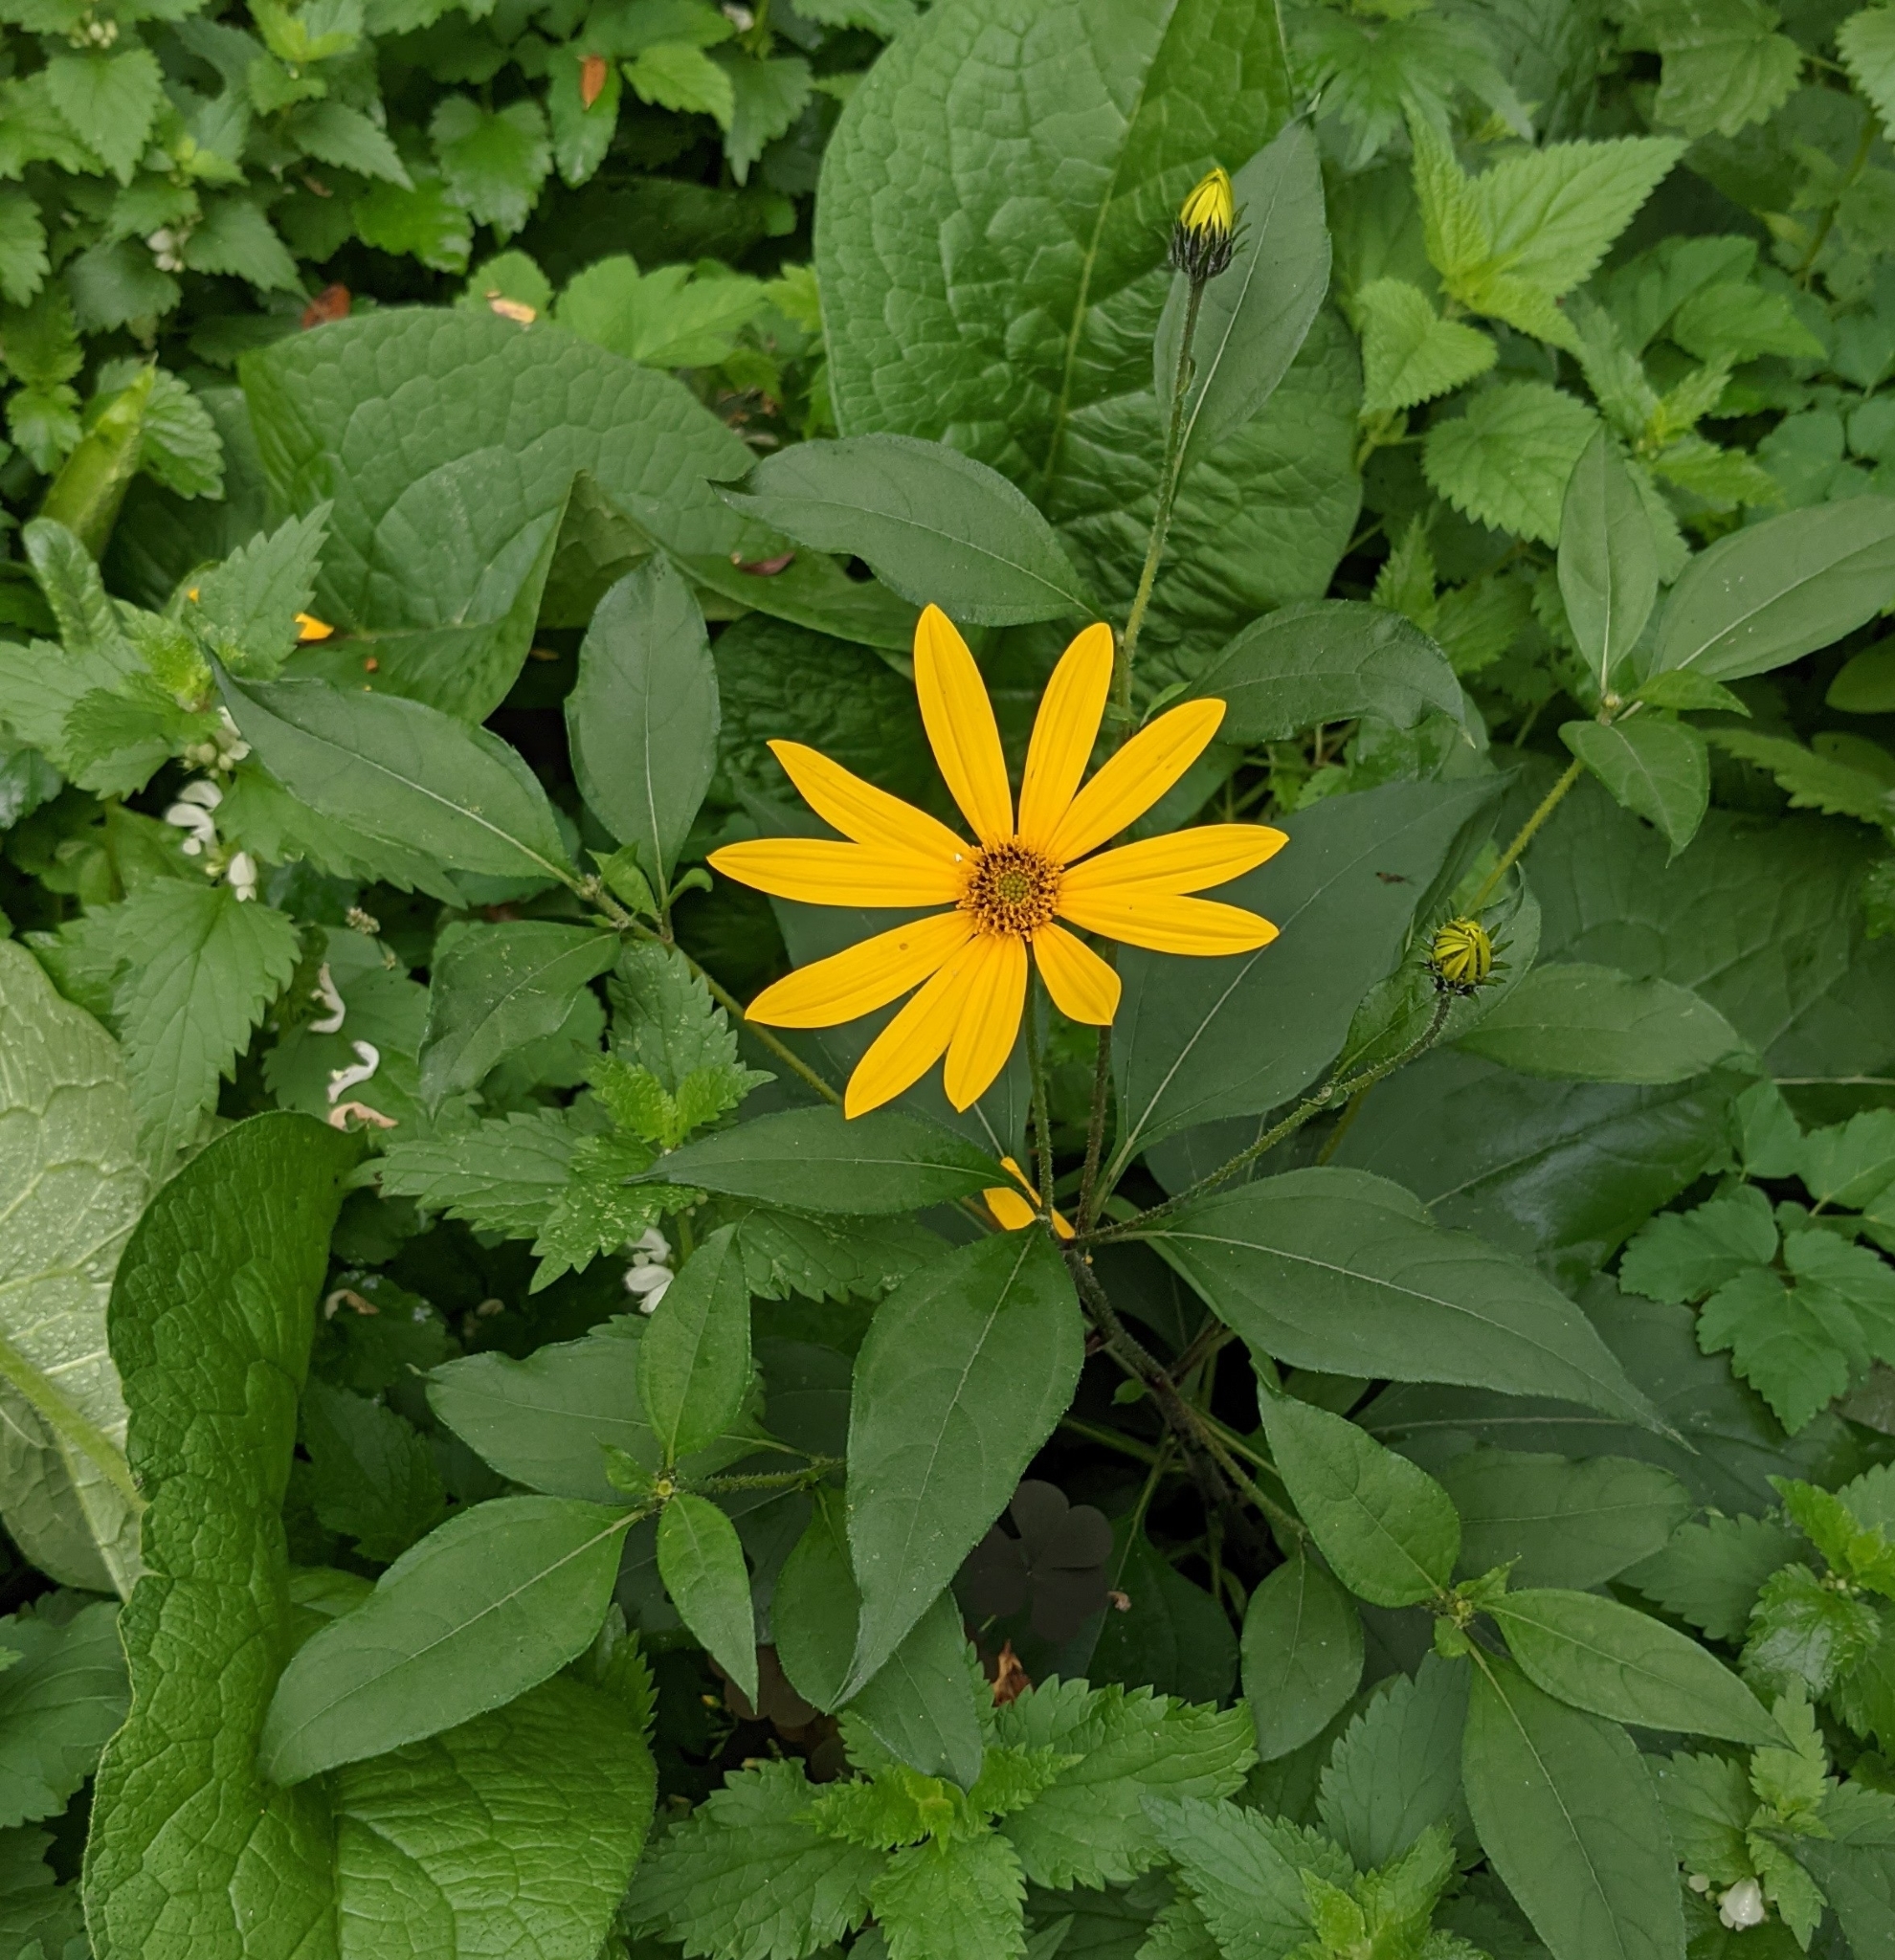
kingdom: Plantae
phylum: Tracheophyta
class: Magnoliopsida
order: Asterales
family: Asteraceae
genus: Helianthus
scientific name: Helianthus tuberosus
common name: Jerusalem artichoke
